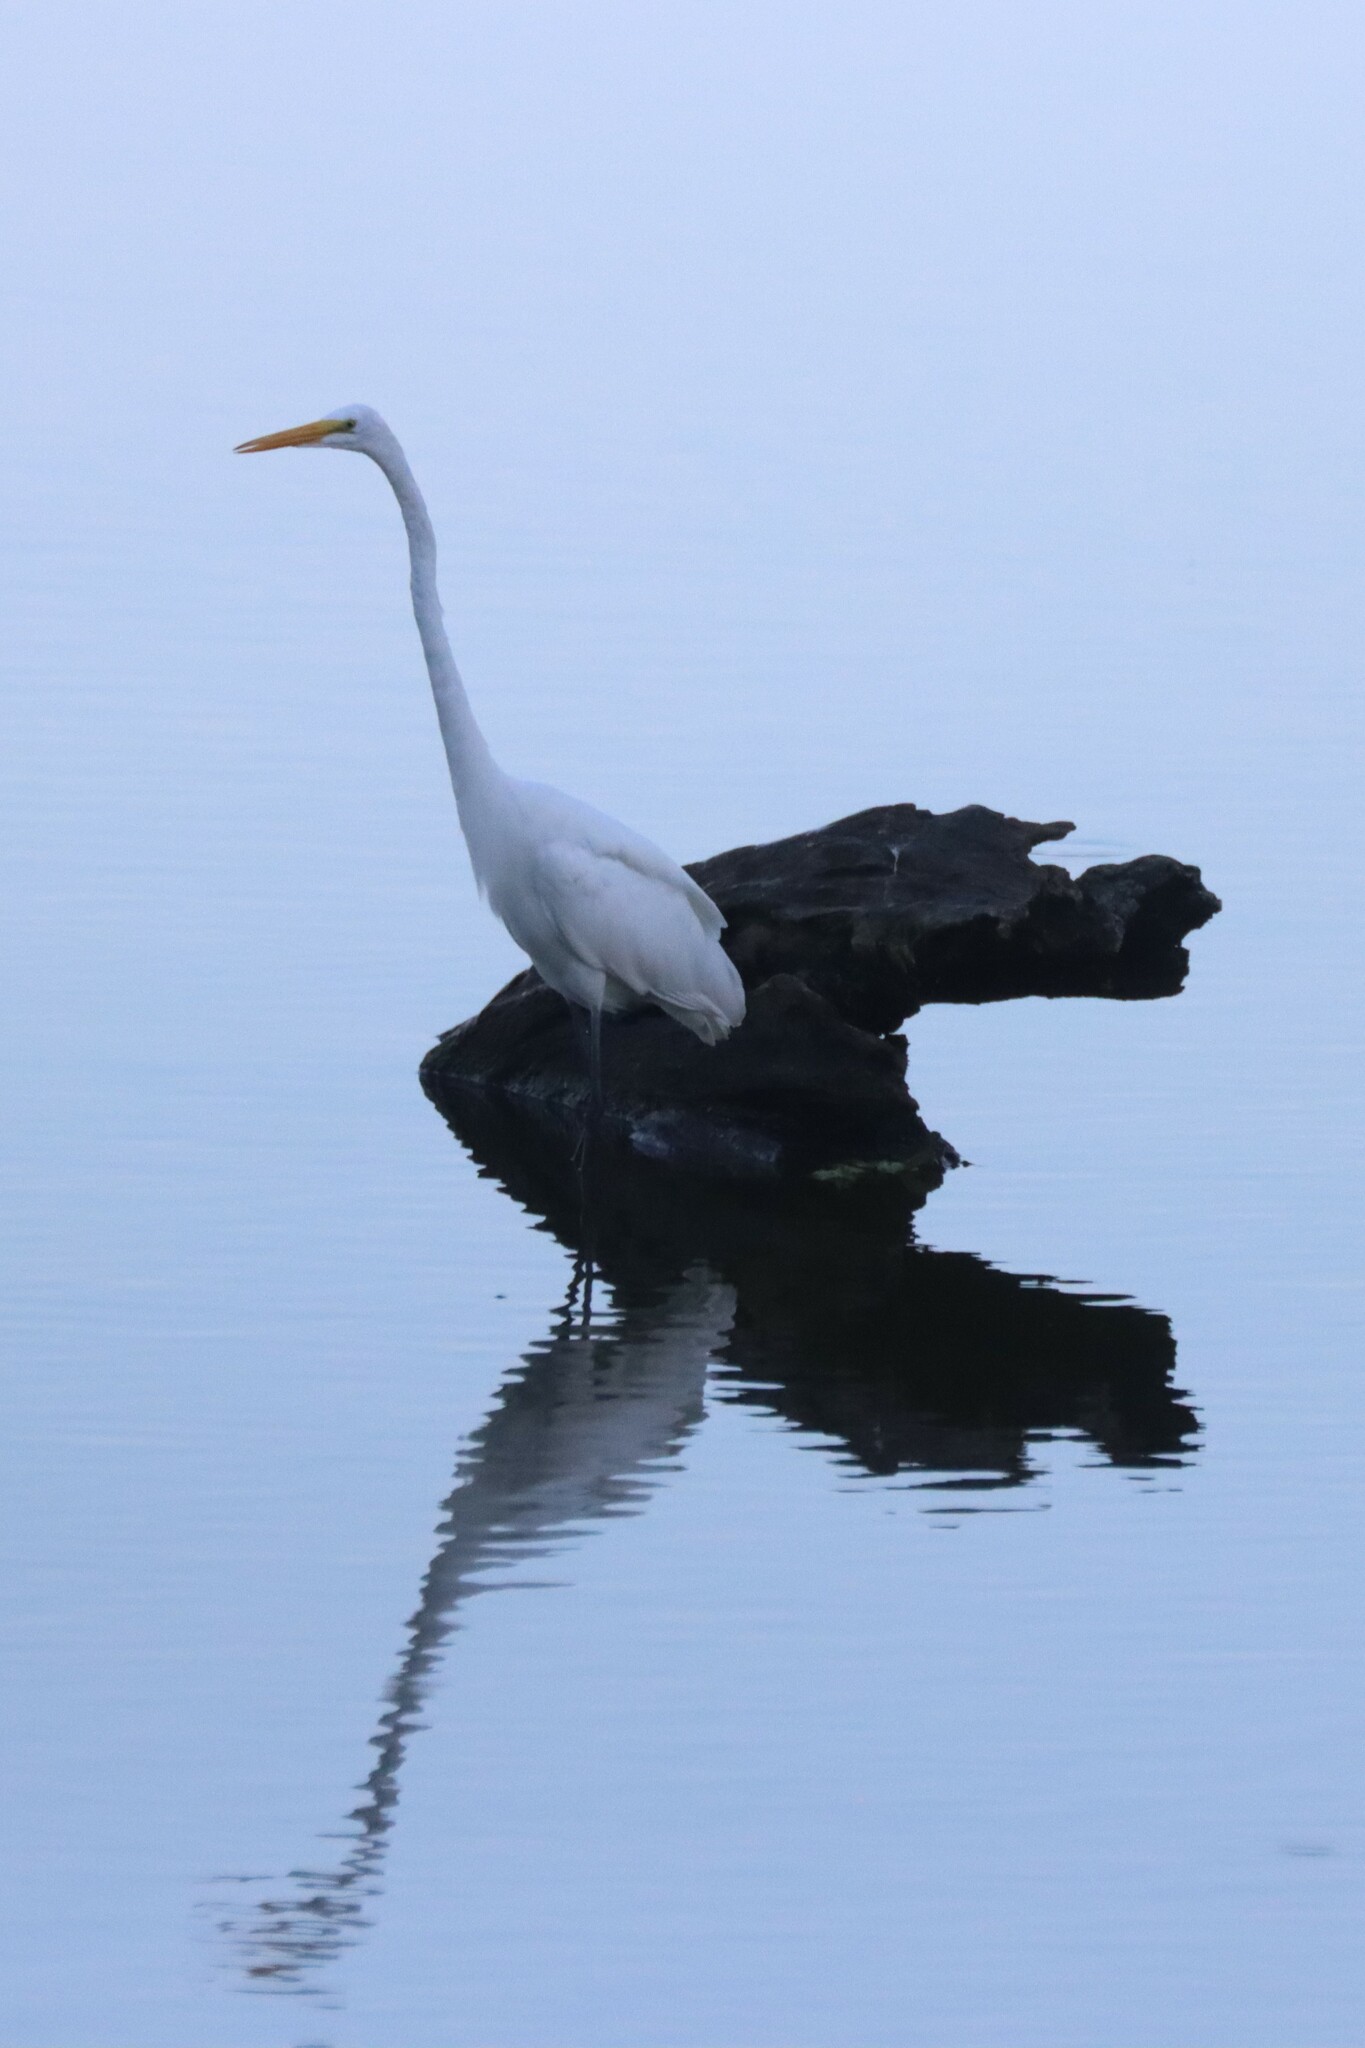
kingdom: Animalia
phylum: Chordata
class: Aves
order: Pelecaniformes
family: Ardeidae
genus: Ardea
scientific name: Ardea alba
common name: Great egret
